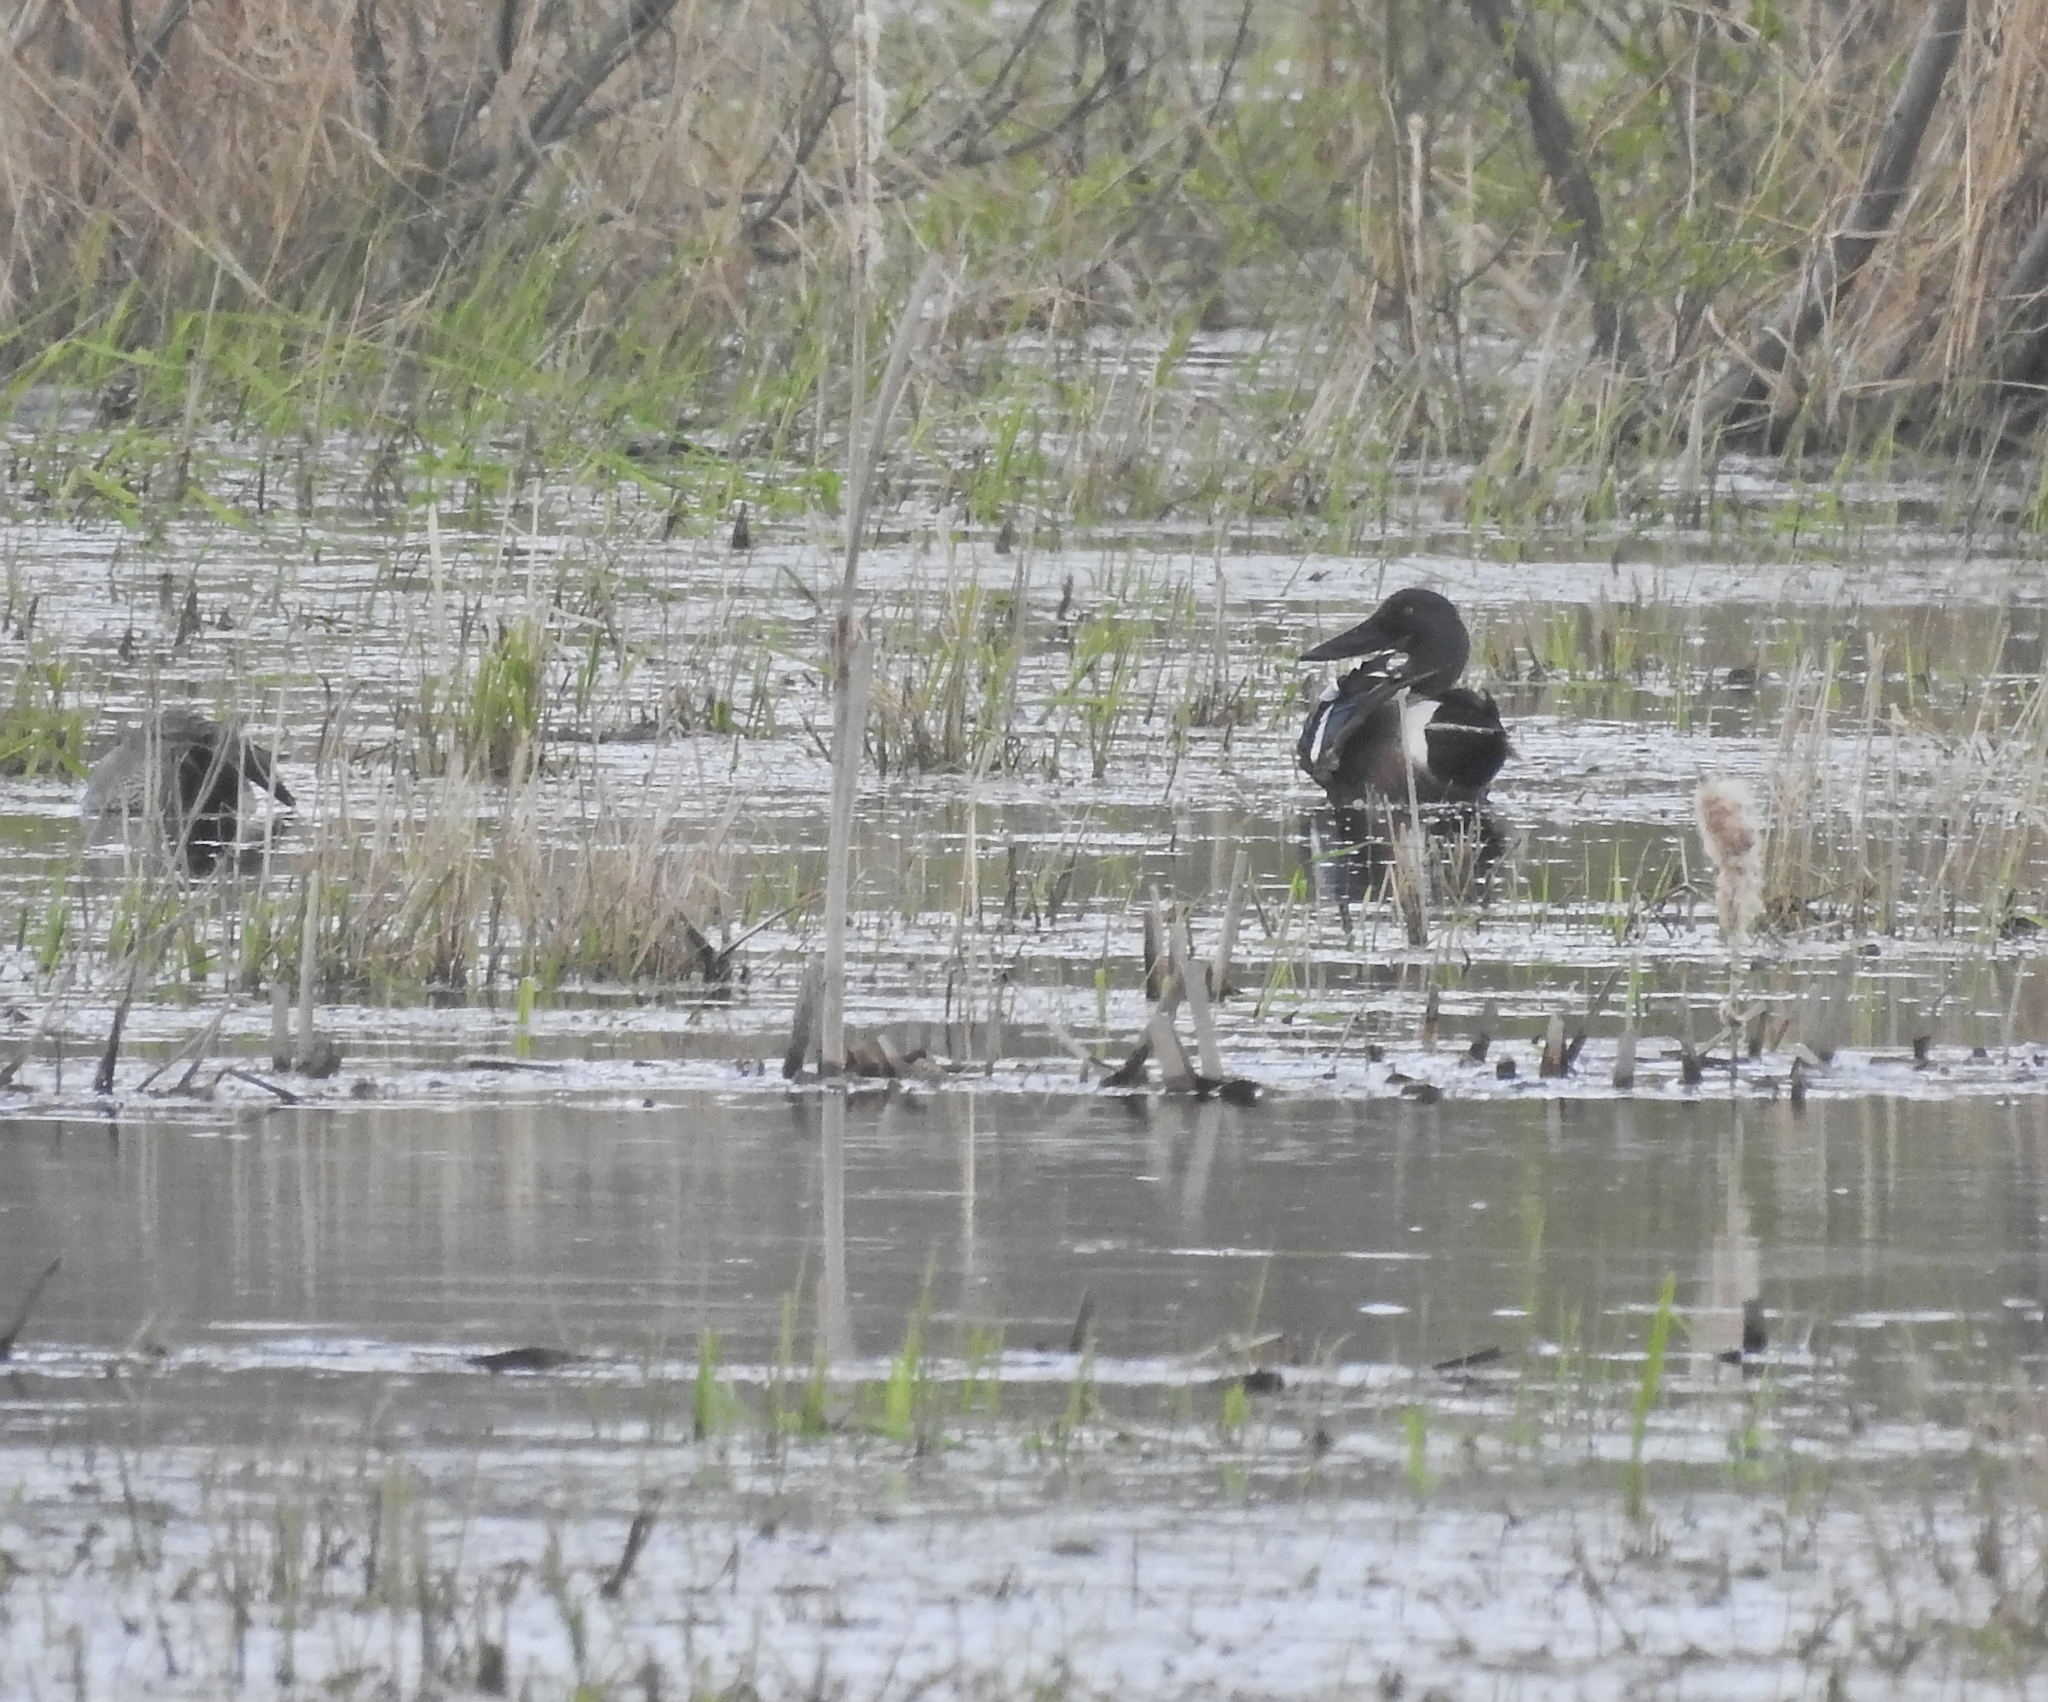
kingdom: Animalia
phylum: Chordata
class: Aves
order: Anseriformes
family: Anatidae
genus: Spatula
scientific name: Spatula clypeata
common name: Northern shoveler
